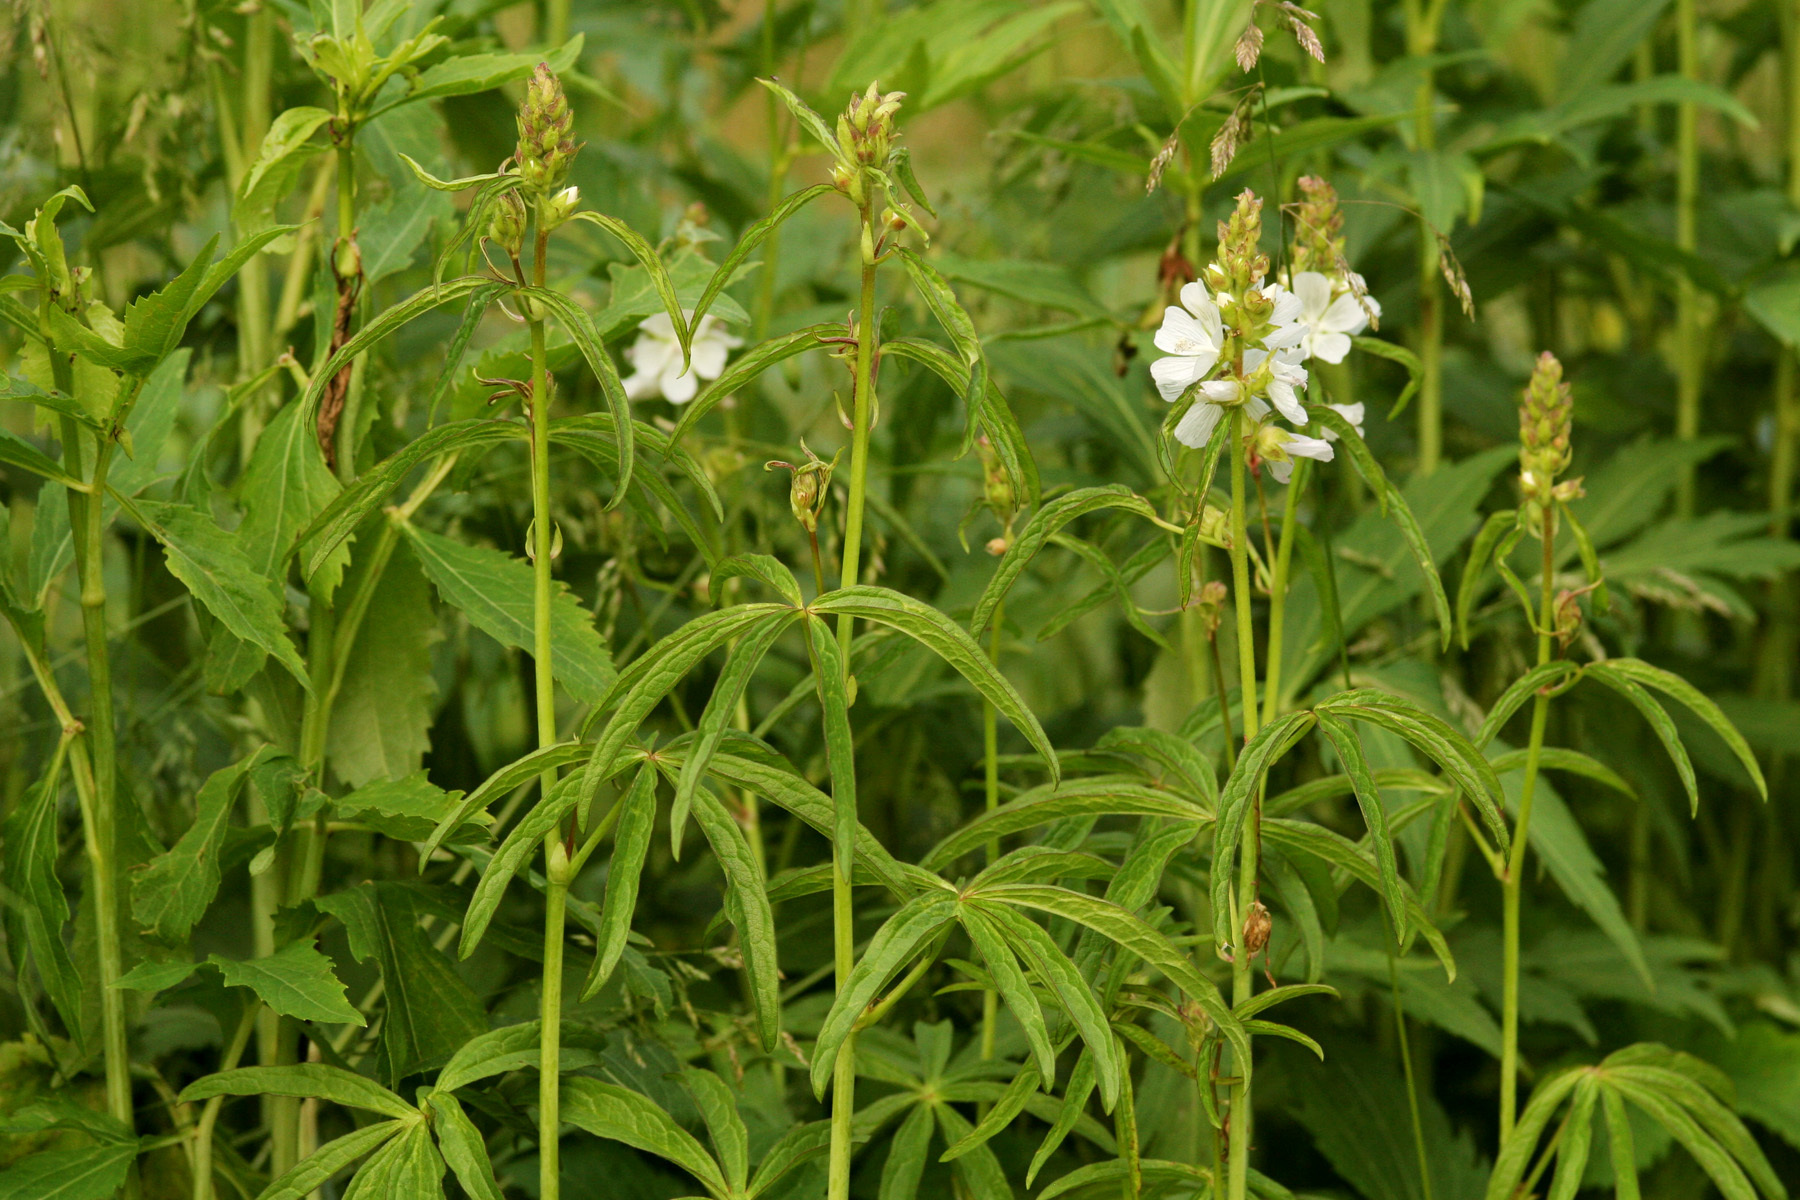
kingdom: Plantae
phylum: Tracheophyta
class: Magnoliopsida
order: Malvales
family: Malvaceae
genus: Sidalcea
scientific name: Sidalcea candida
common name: Prairie-mallow
